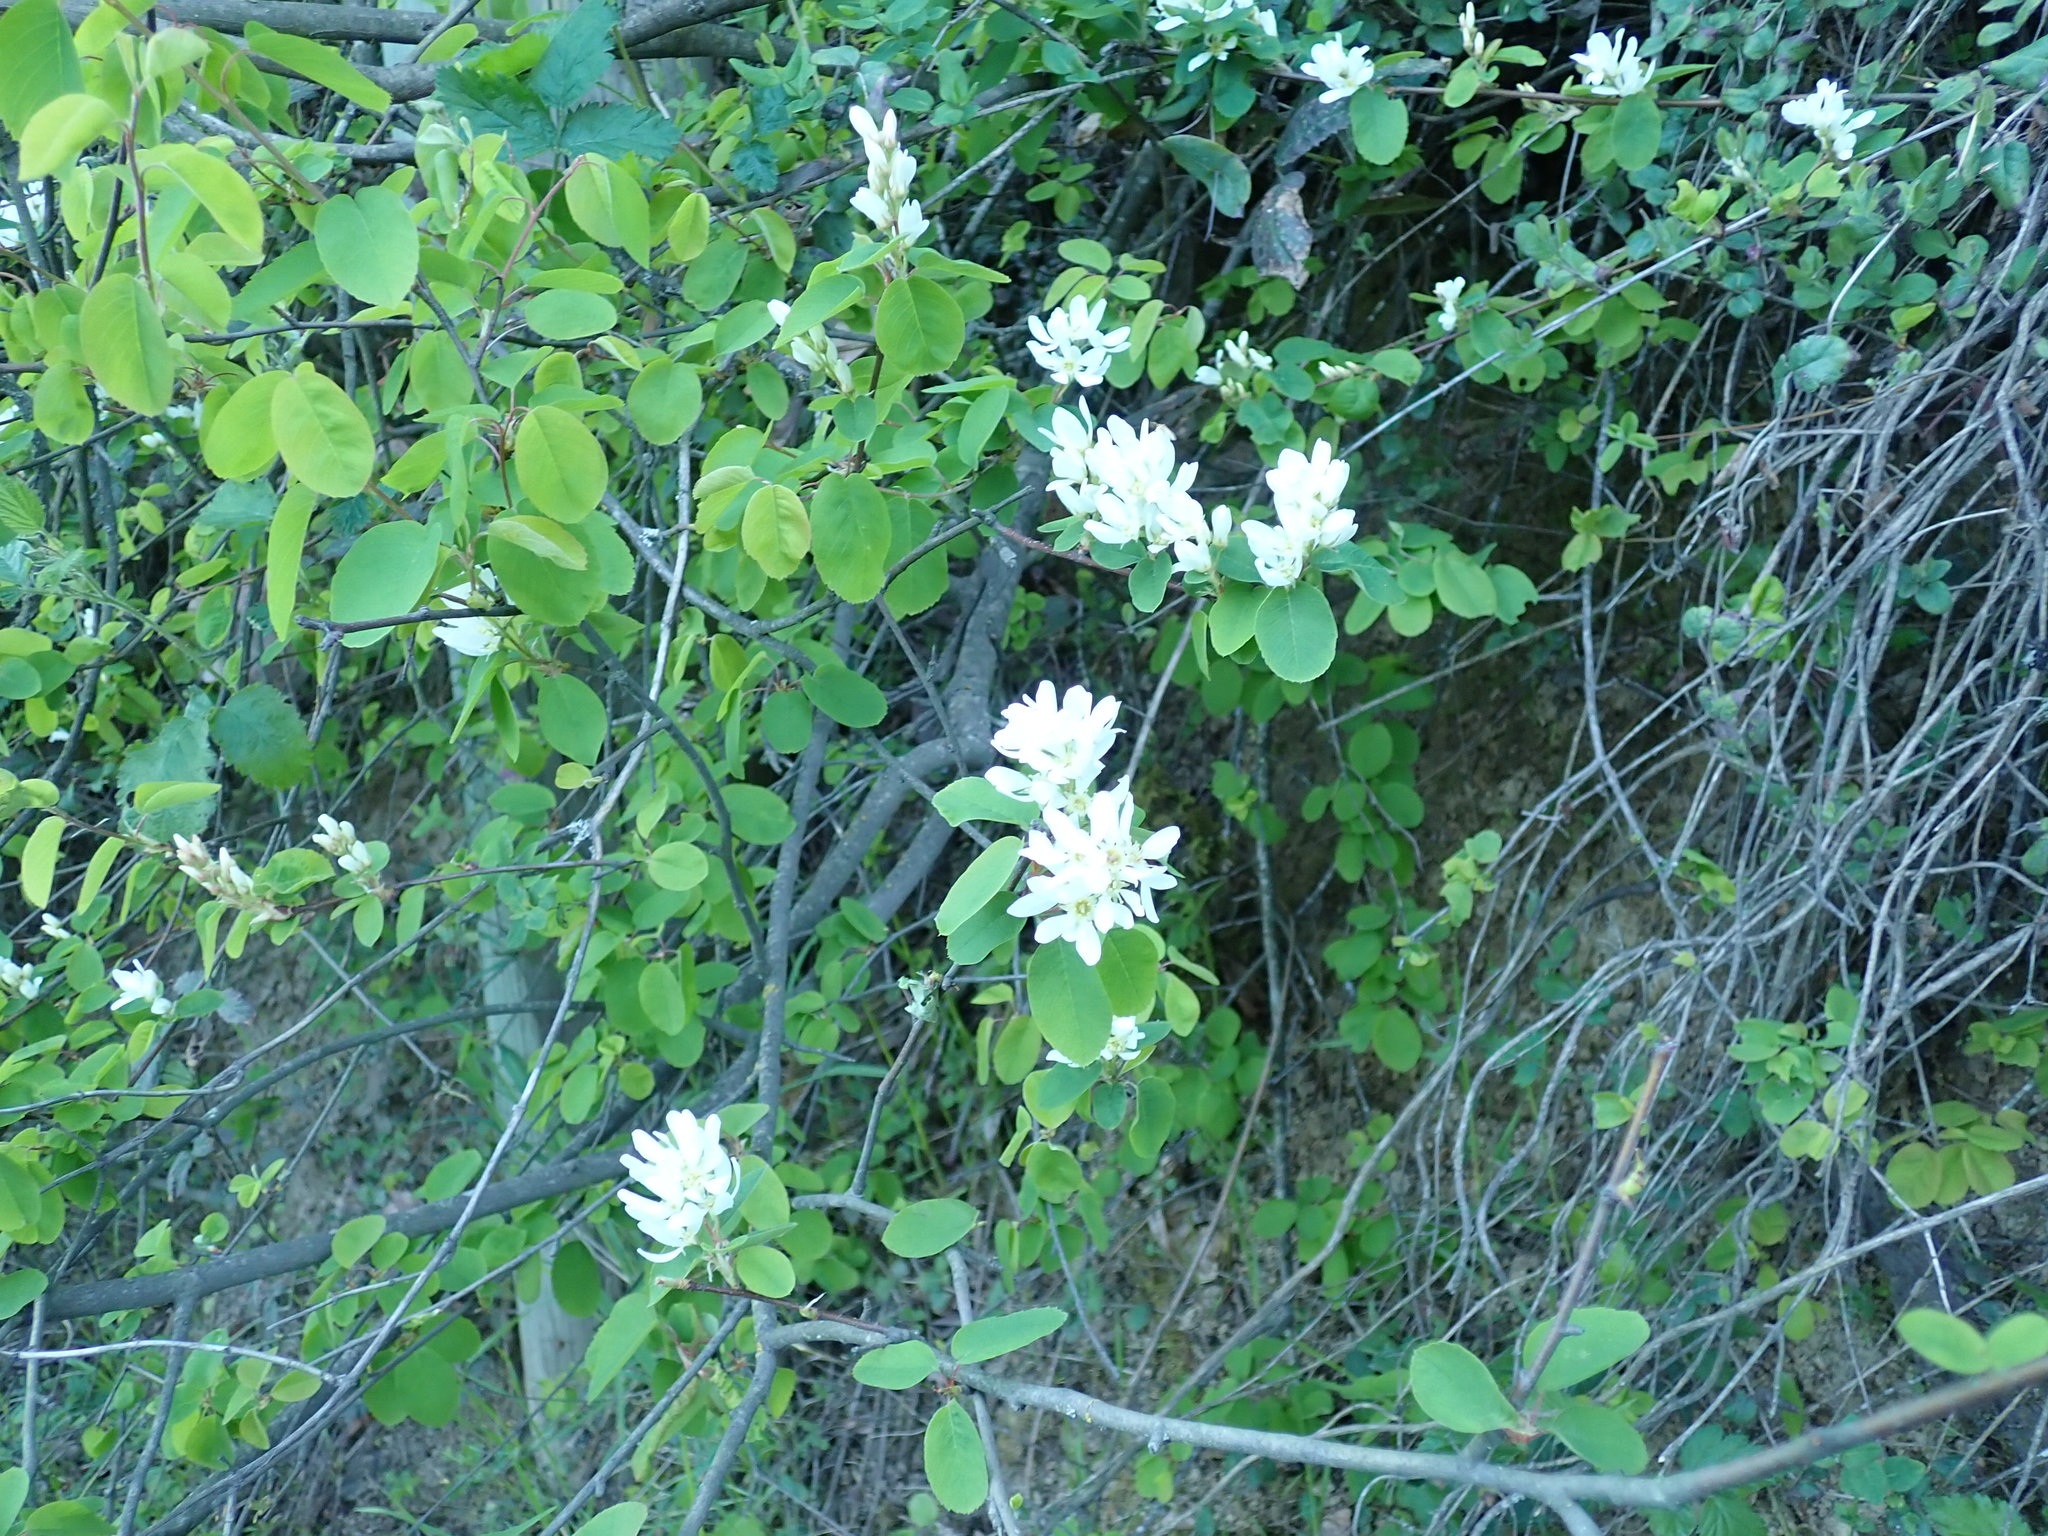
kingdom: Plantae
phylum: Tracheophyta
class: Magnoliopsida
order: Rosales
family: Rosaceae
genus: Amelanchier
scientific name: Amelanchier alnifolia
